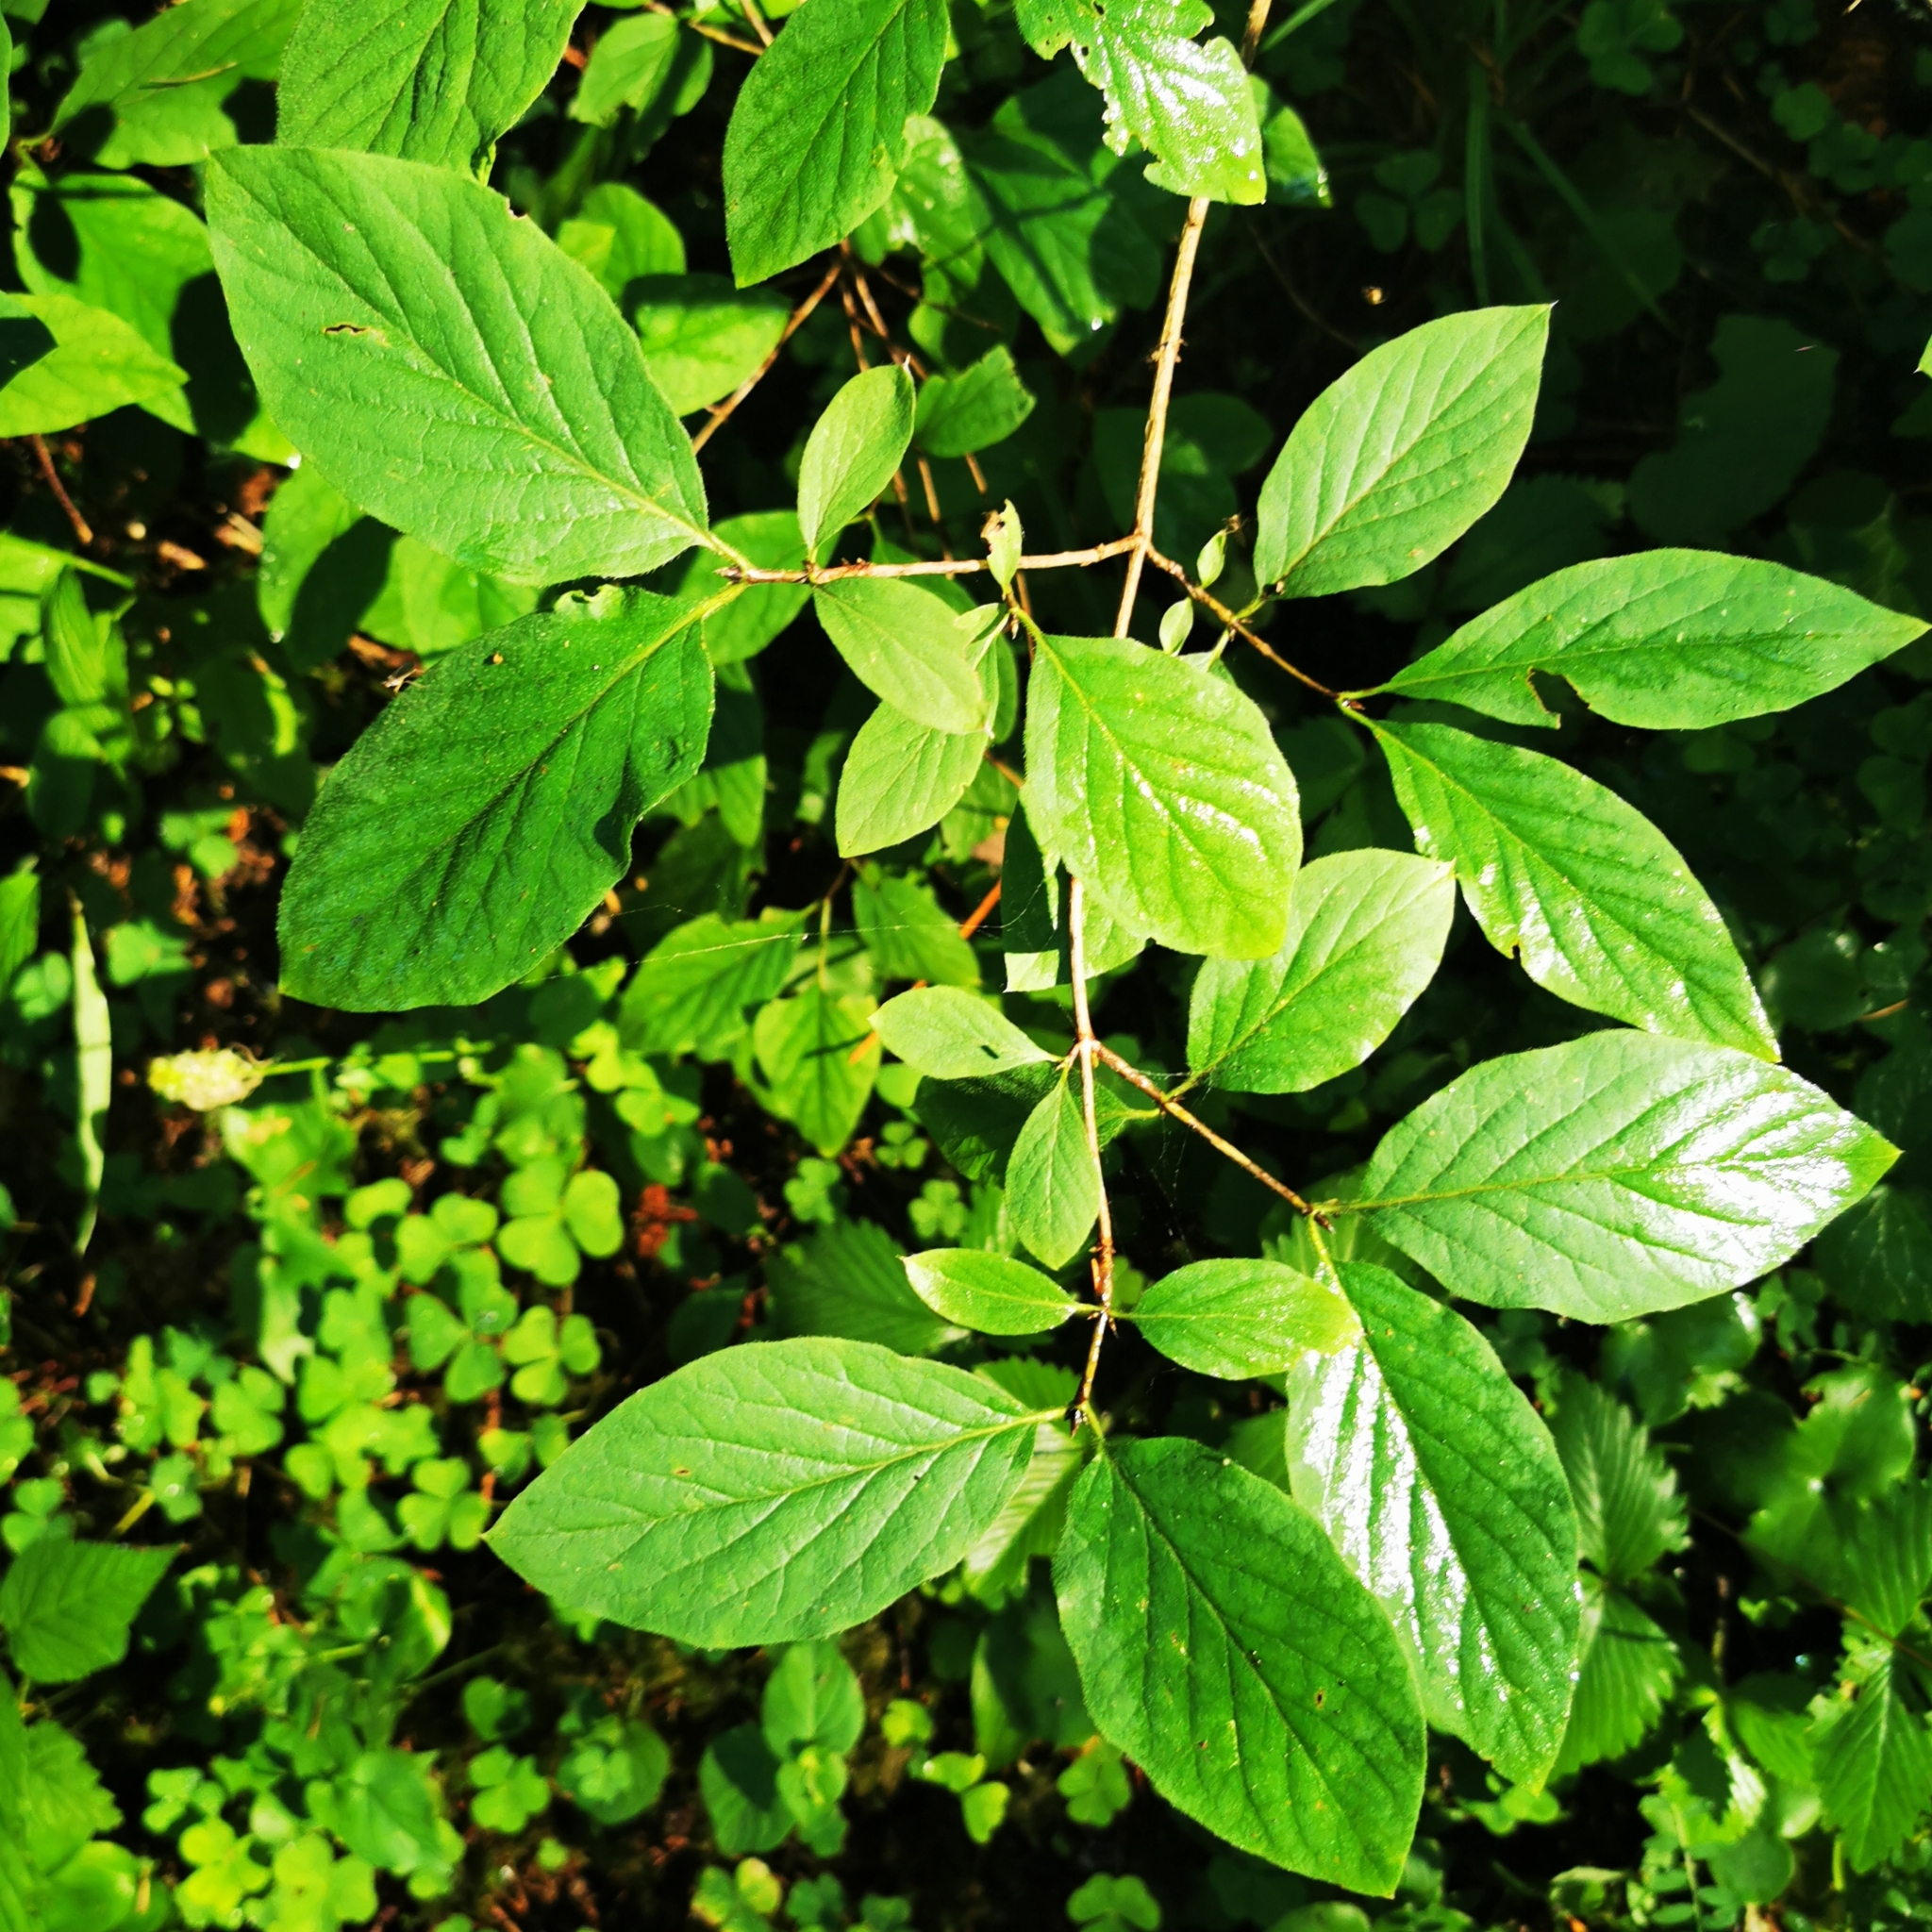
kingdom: Plantae
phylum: Tracheophyta
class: Magnoliopsida
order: Dipsacales
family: Caprifoliaceae
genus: Lonicera
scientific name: Lonicera xylosteum
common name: Fly honeysuckle
